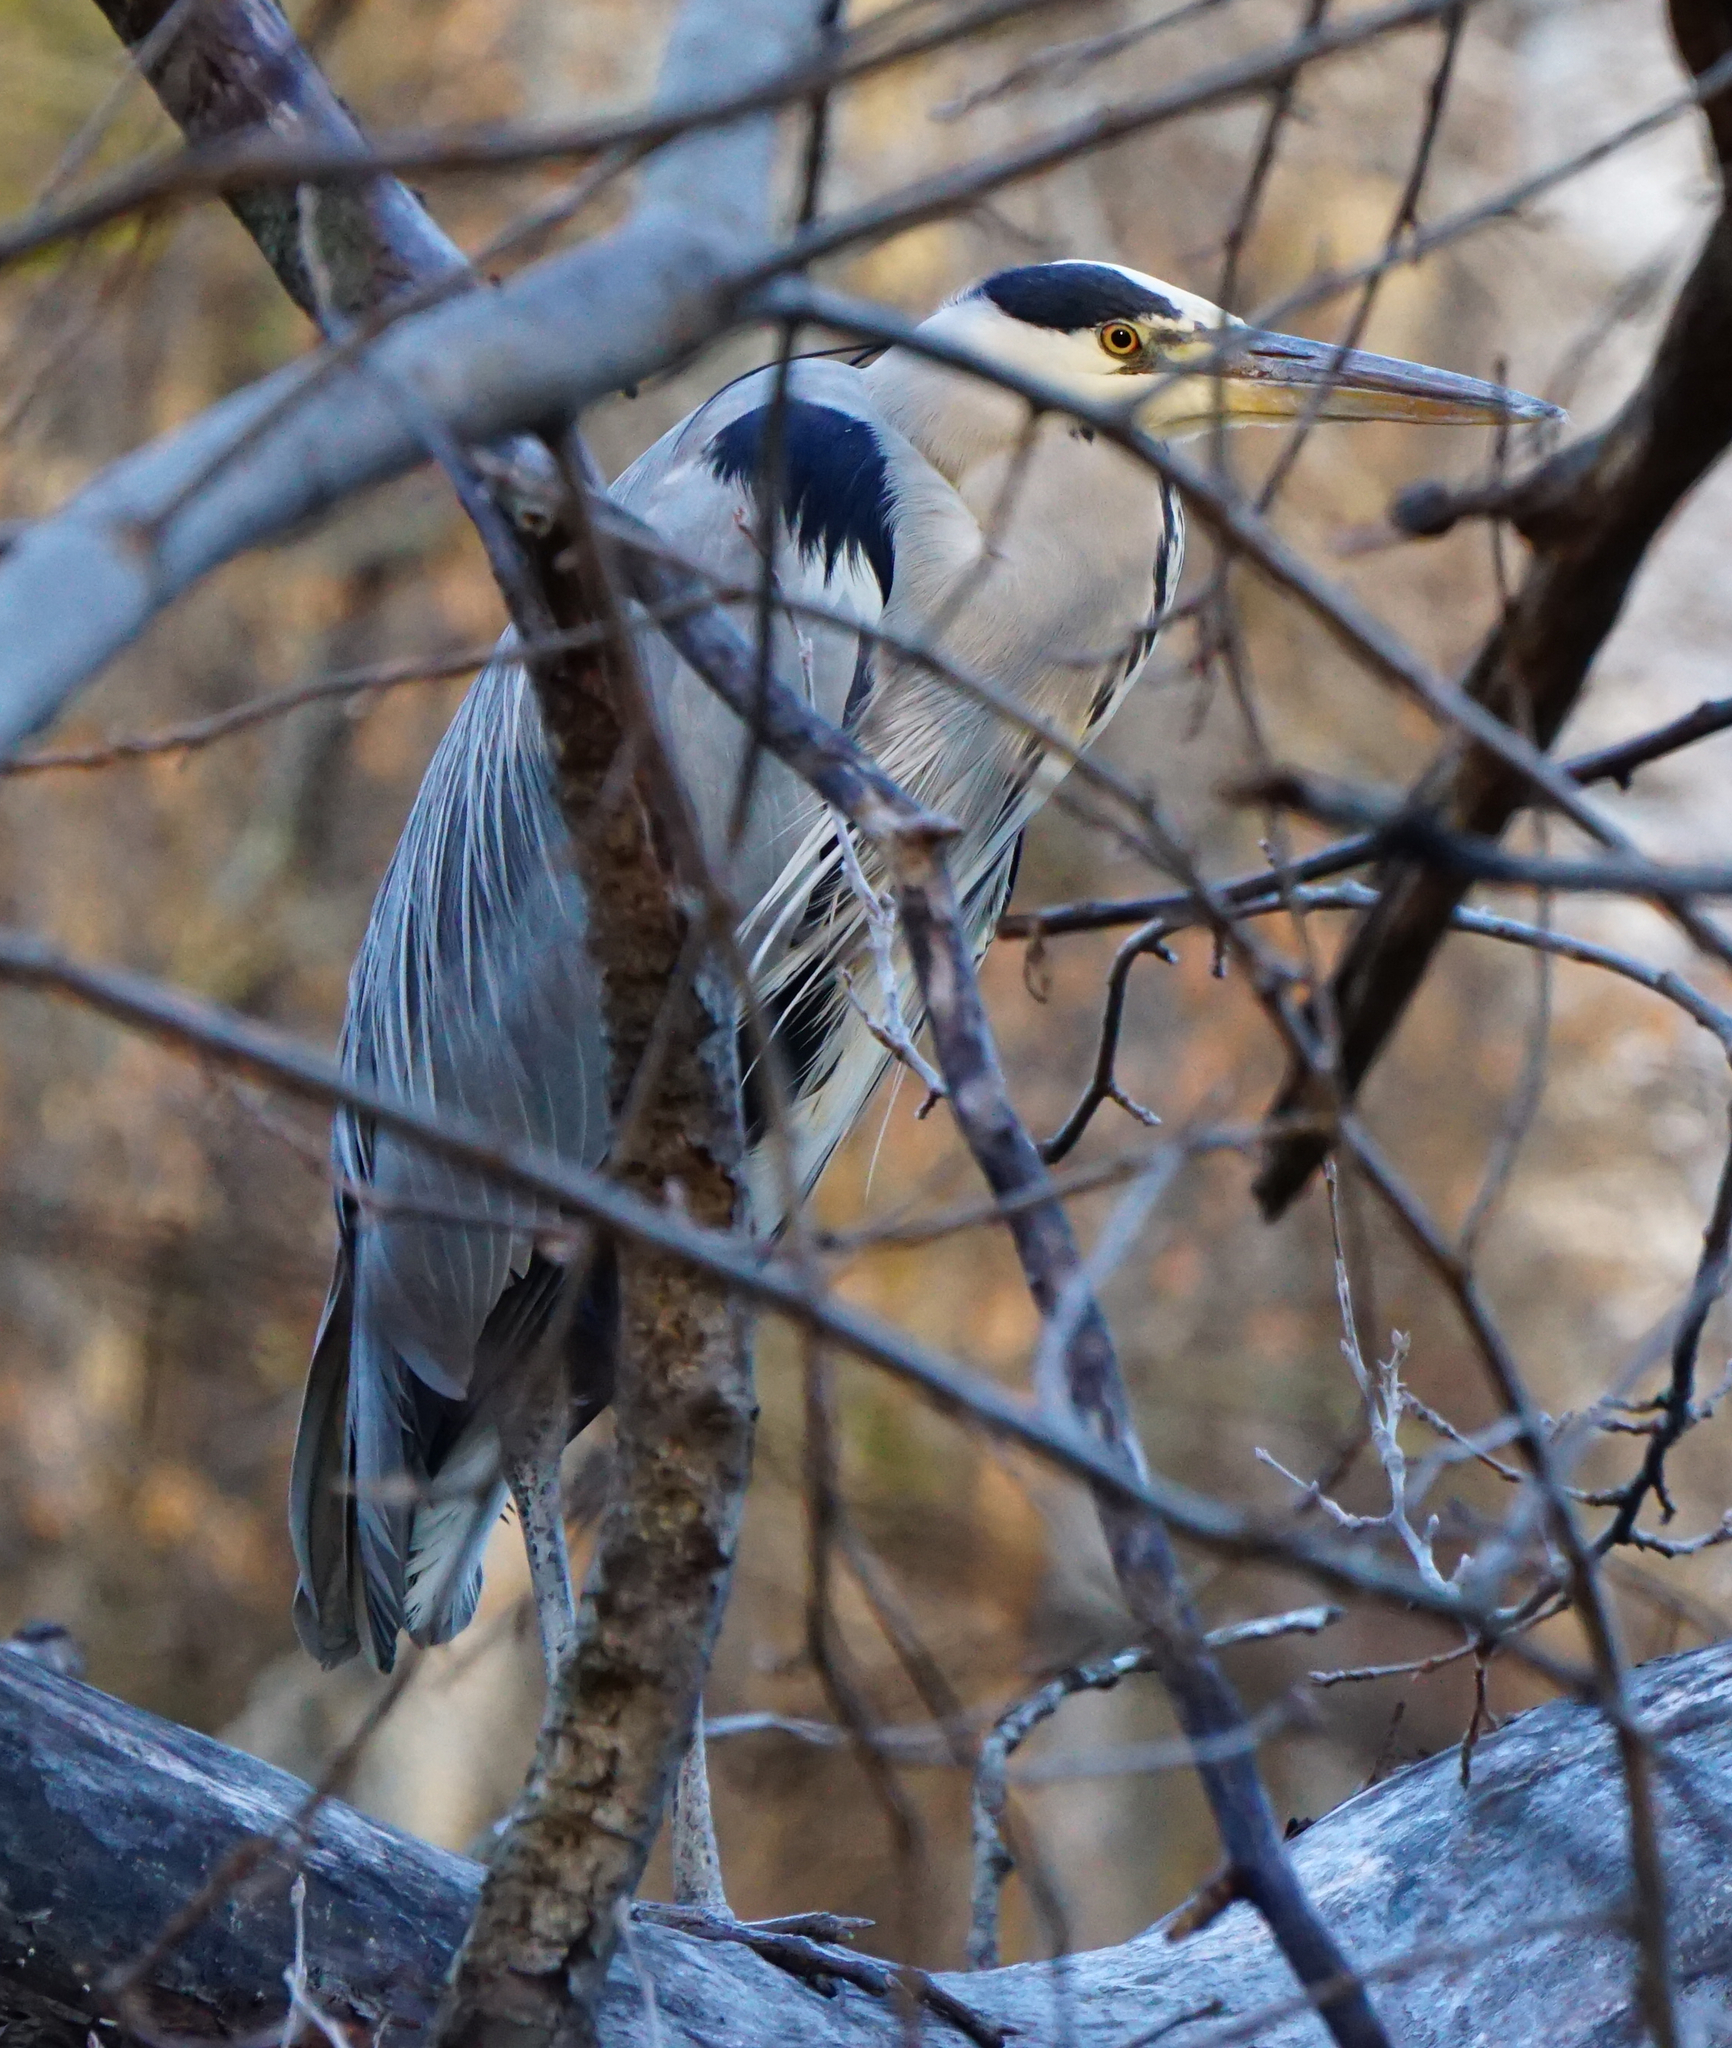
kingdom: Animalia
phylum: Chordata
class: Aves
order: Pelecaniformes
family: Ardeidae
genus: Ardea
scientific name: Ardea cinerea
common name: Grey heron
